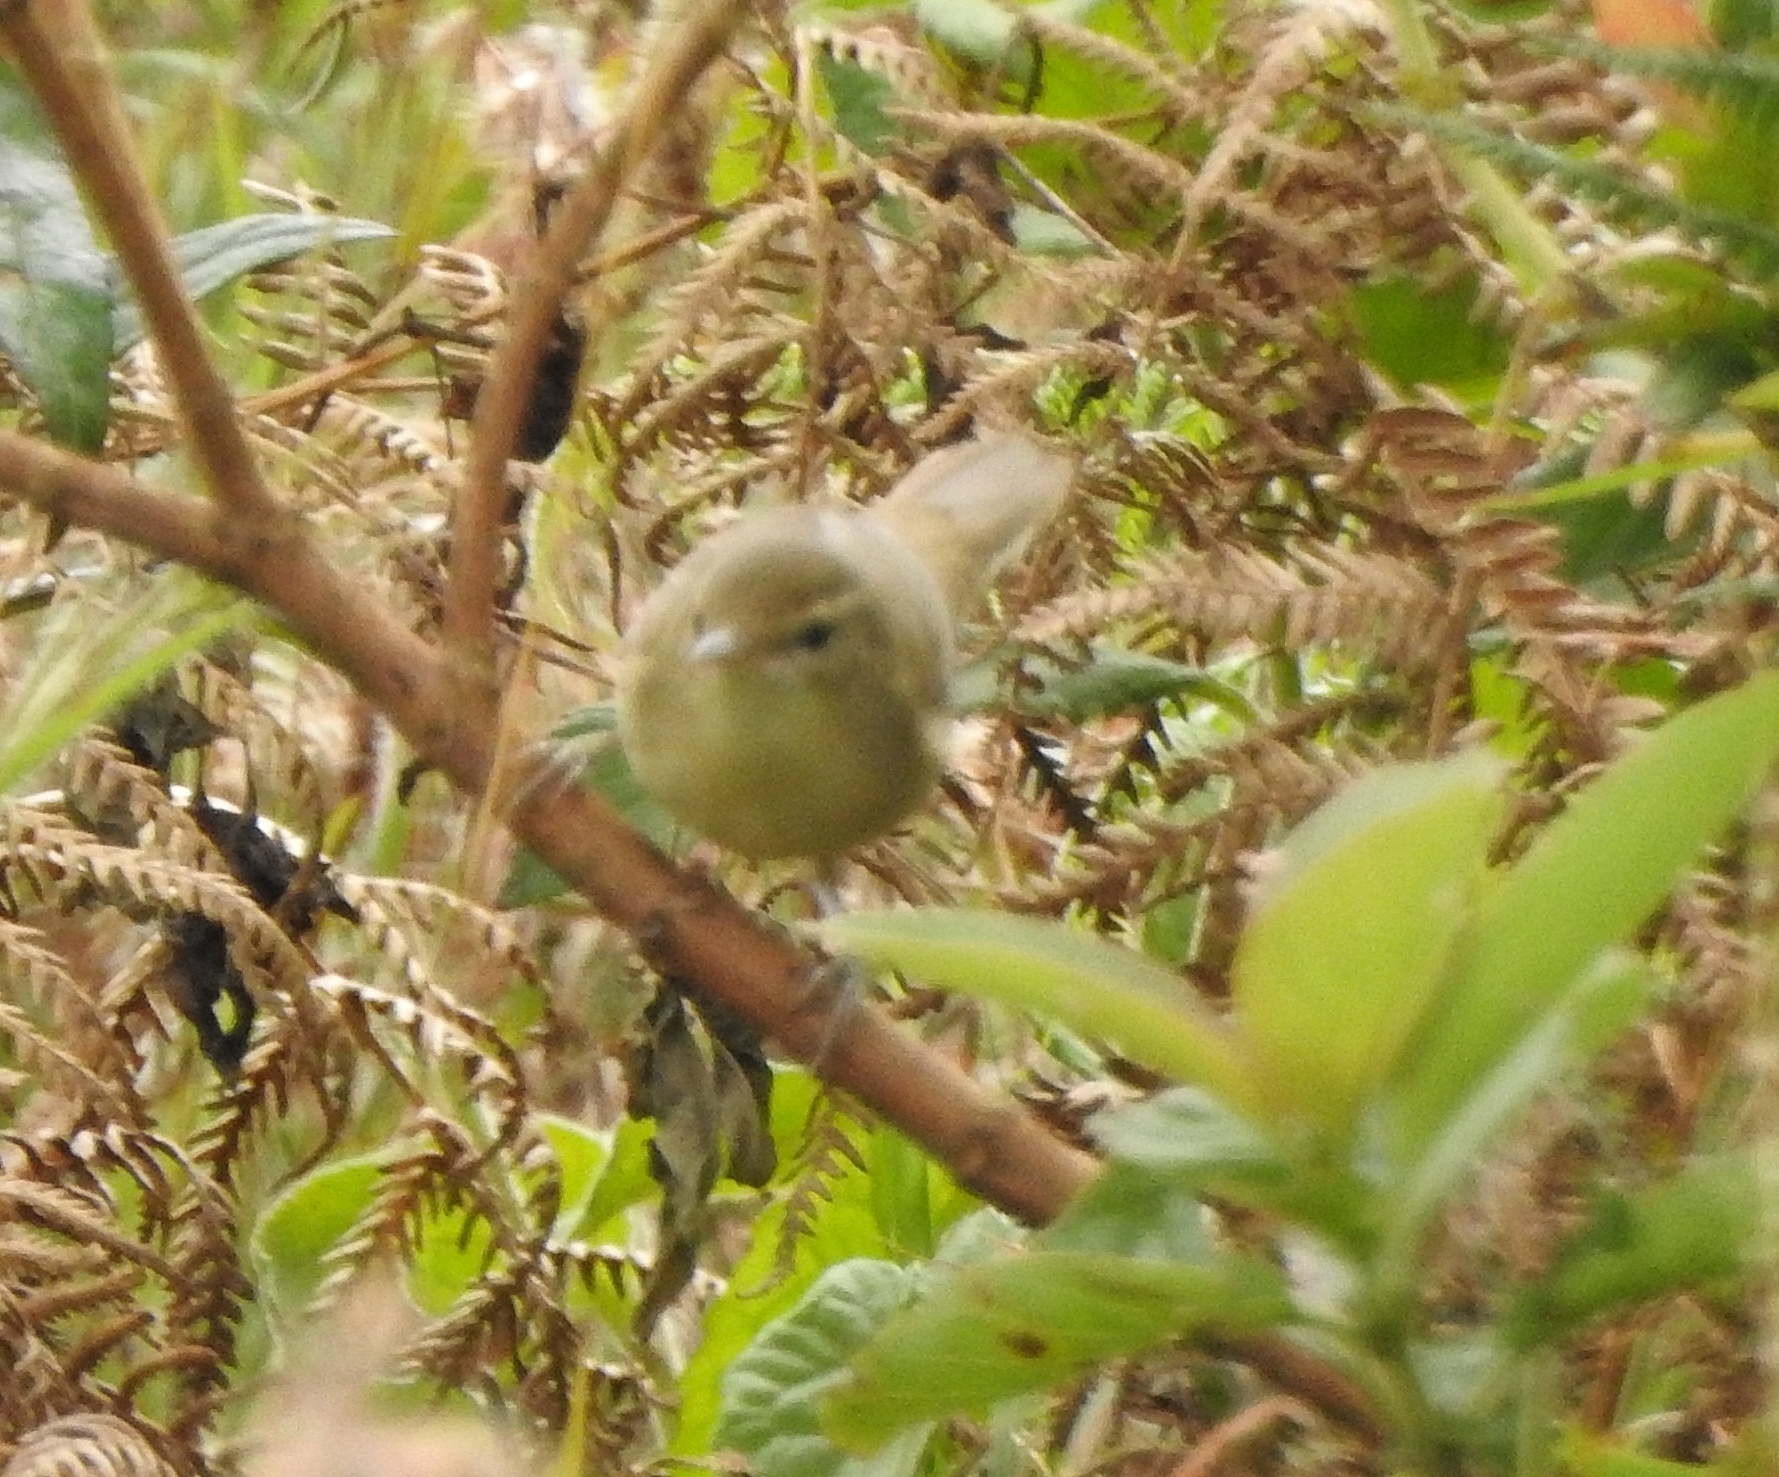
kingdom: Animalia
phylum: Chordata
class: Aves
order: Passeriformes
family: Acrocephalidae
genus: Acrocephalus
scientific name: Acrocephalus dumetorum
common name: Blyth's reed warbler
